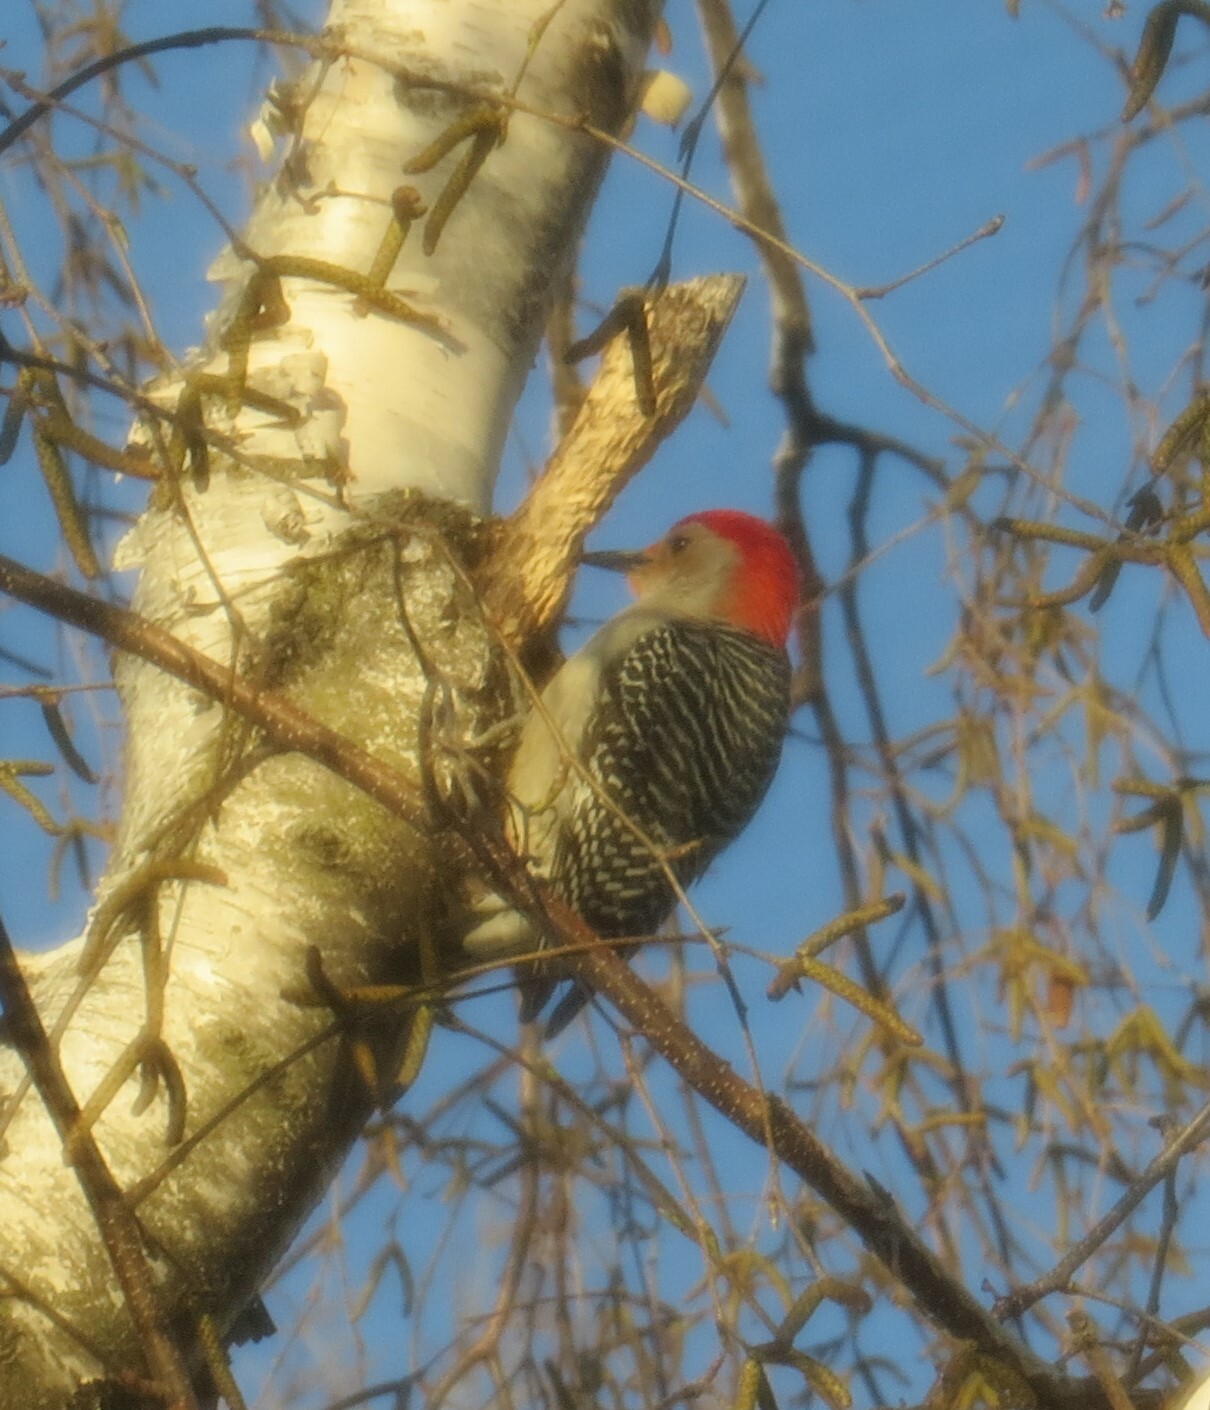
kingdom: Animalia
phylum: Chordata
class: Aves
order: Piciformes
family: Picidae
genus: Melanerpes
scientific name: Melanerpes carolinus
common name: Red-bellied woodpecker
